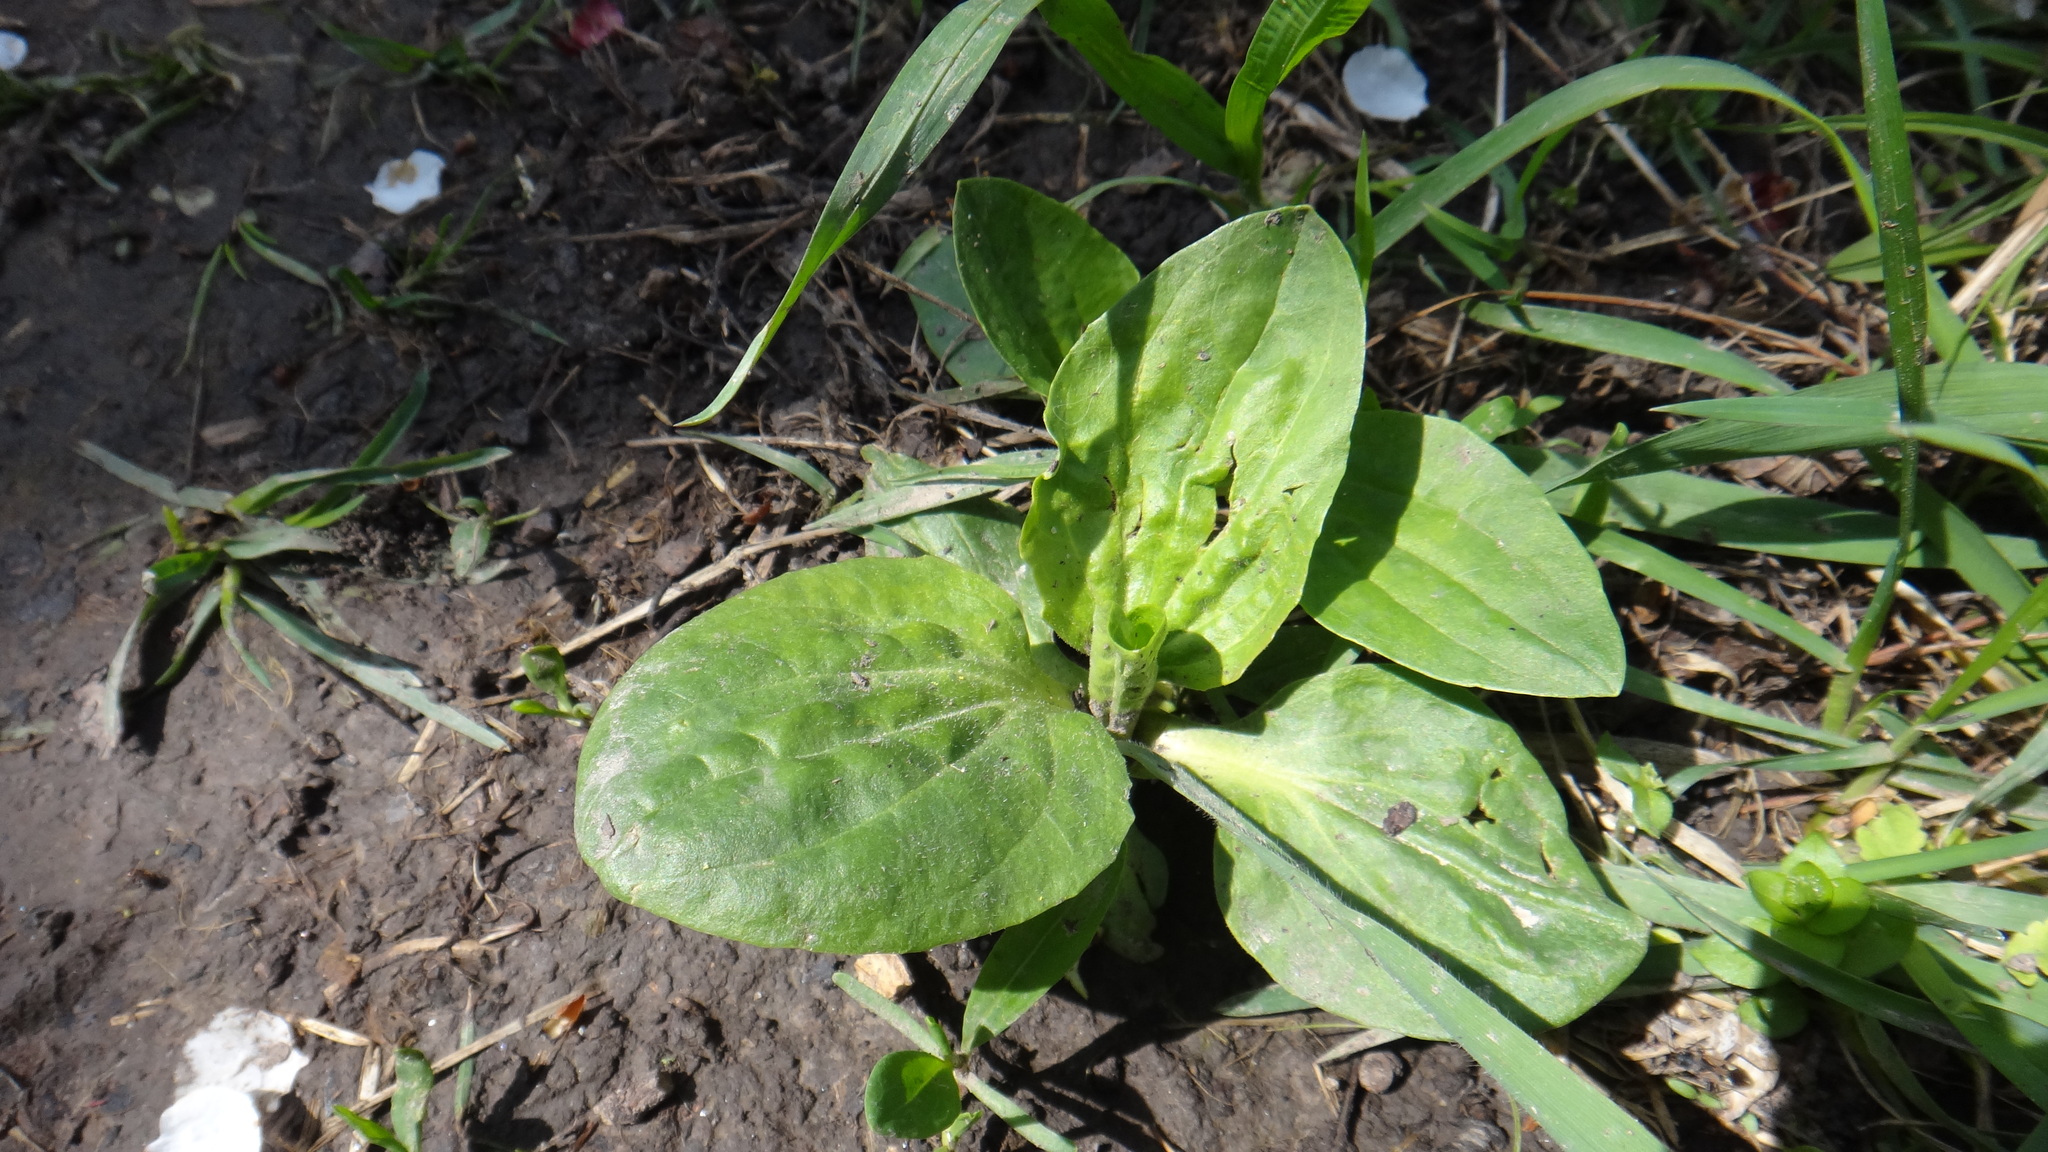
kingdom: Plantae
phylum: Tracheophyta
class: Magnoliopsida
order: Lamiales
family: Plantaginaceae
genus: Plantago
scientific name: Plantago major
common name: Common plantain
